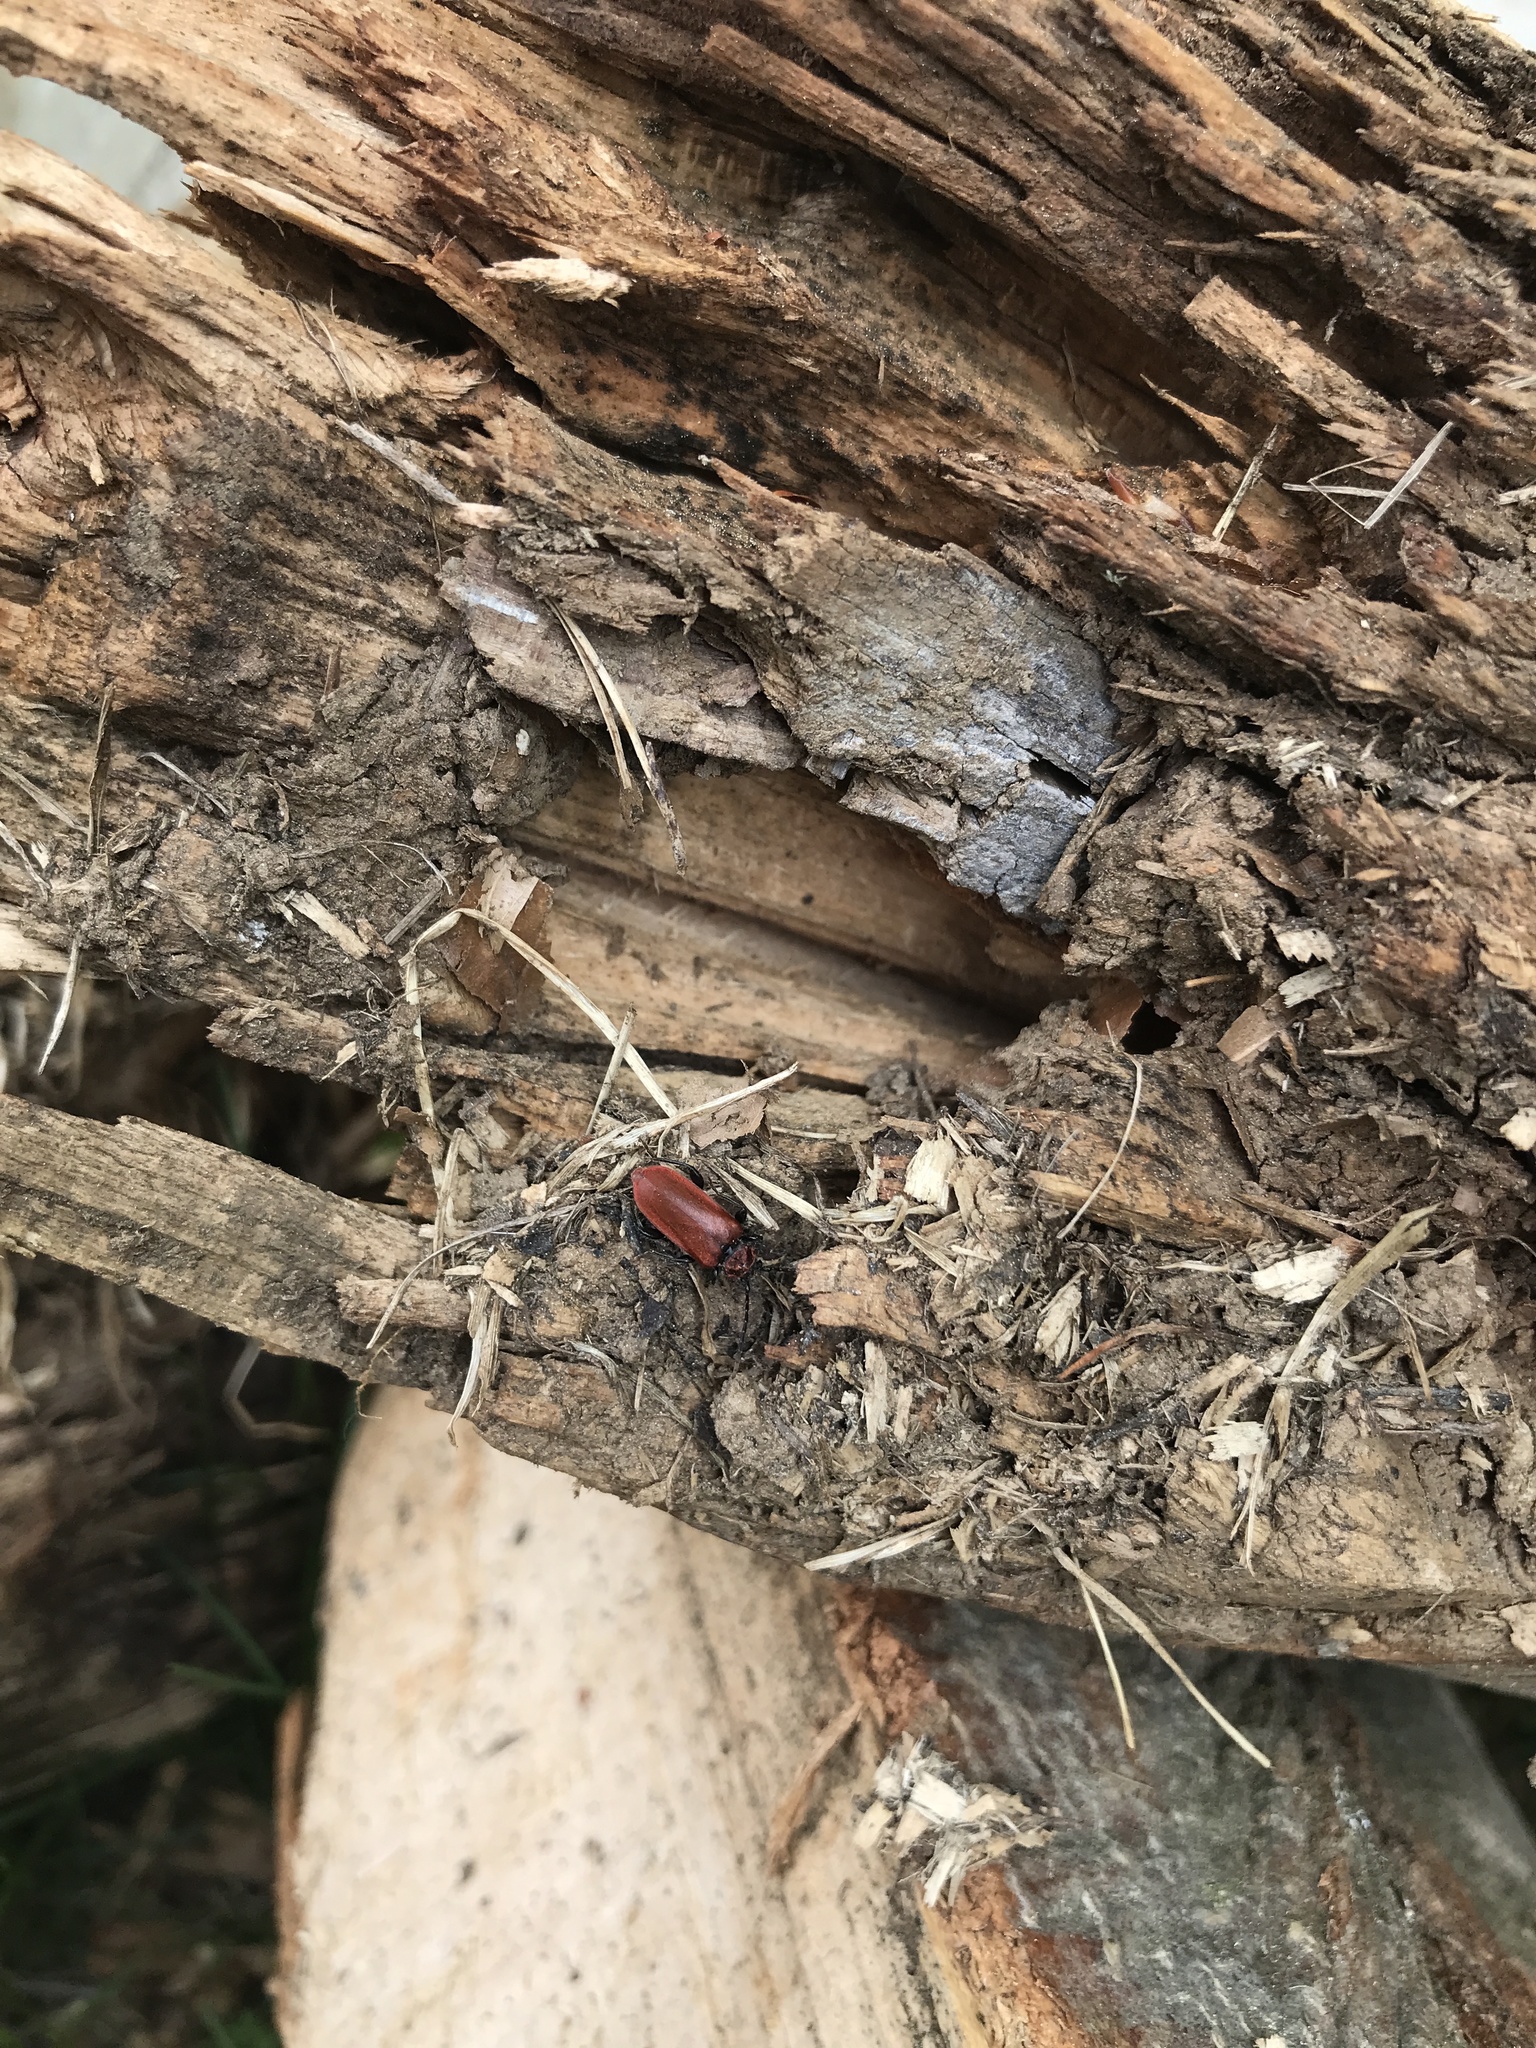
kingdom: Animalia
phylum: Arthropoda
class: Insecta
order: Coleoptera
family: Cerambycidae
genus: Pyrrhidium
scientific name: Pyrrhidium sanguineum
